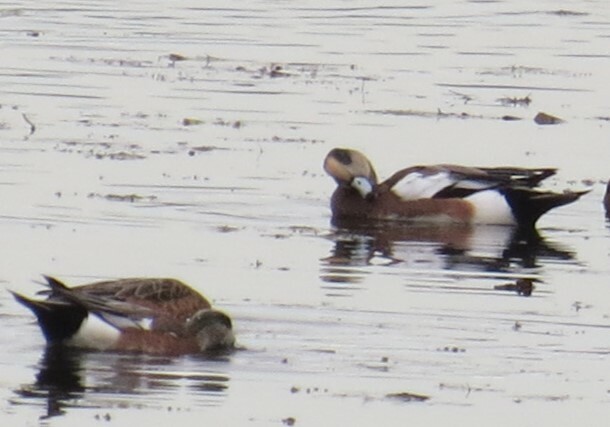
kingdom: Animalia
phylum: Chordata
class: Aves
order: Anseriformes
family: Anatidae
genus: Mareca
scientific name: Mareca americana
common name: American wigeon
